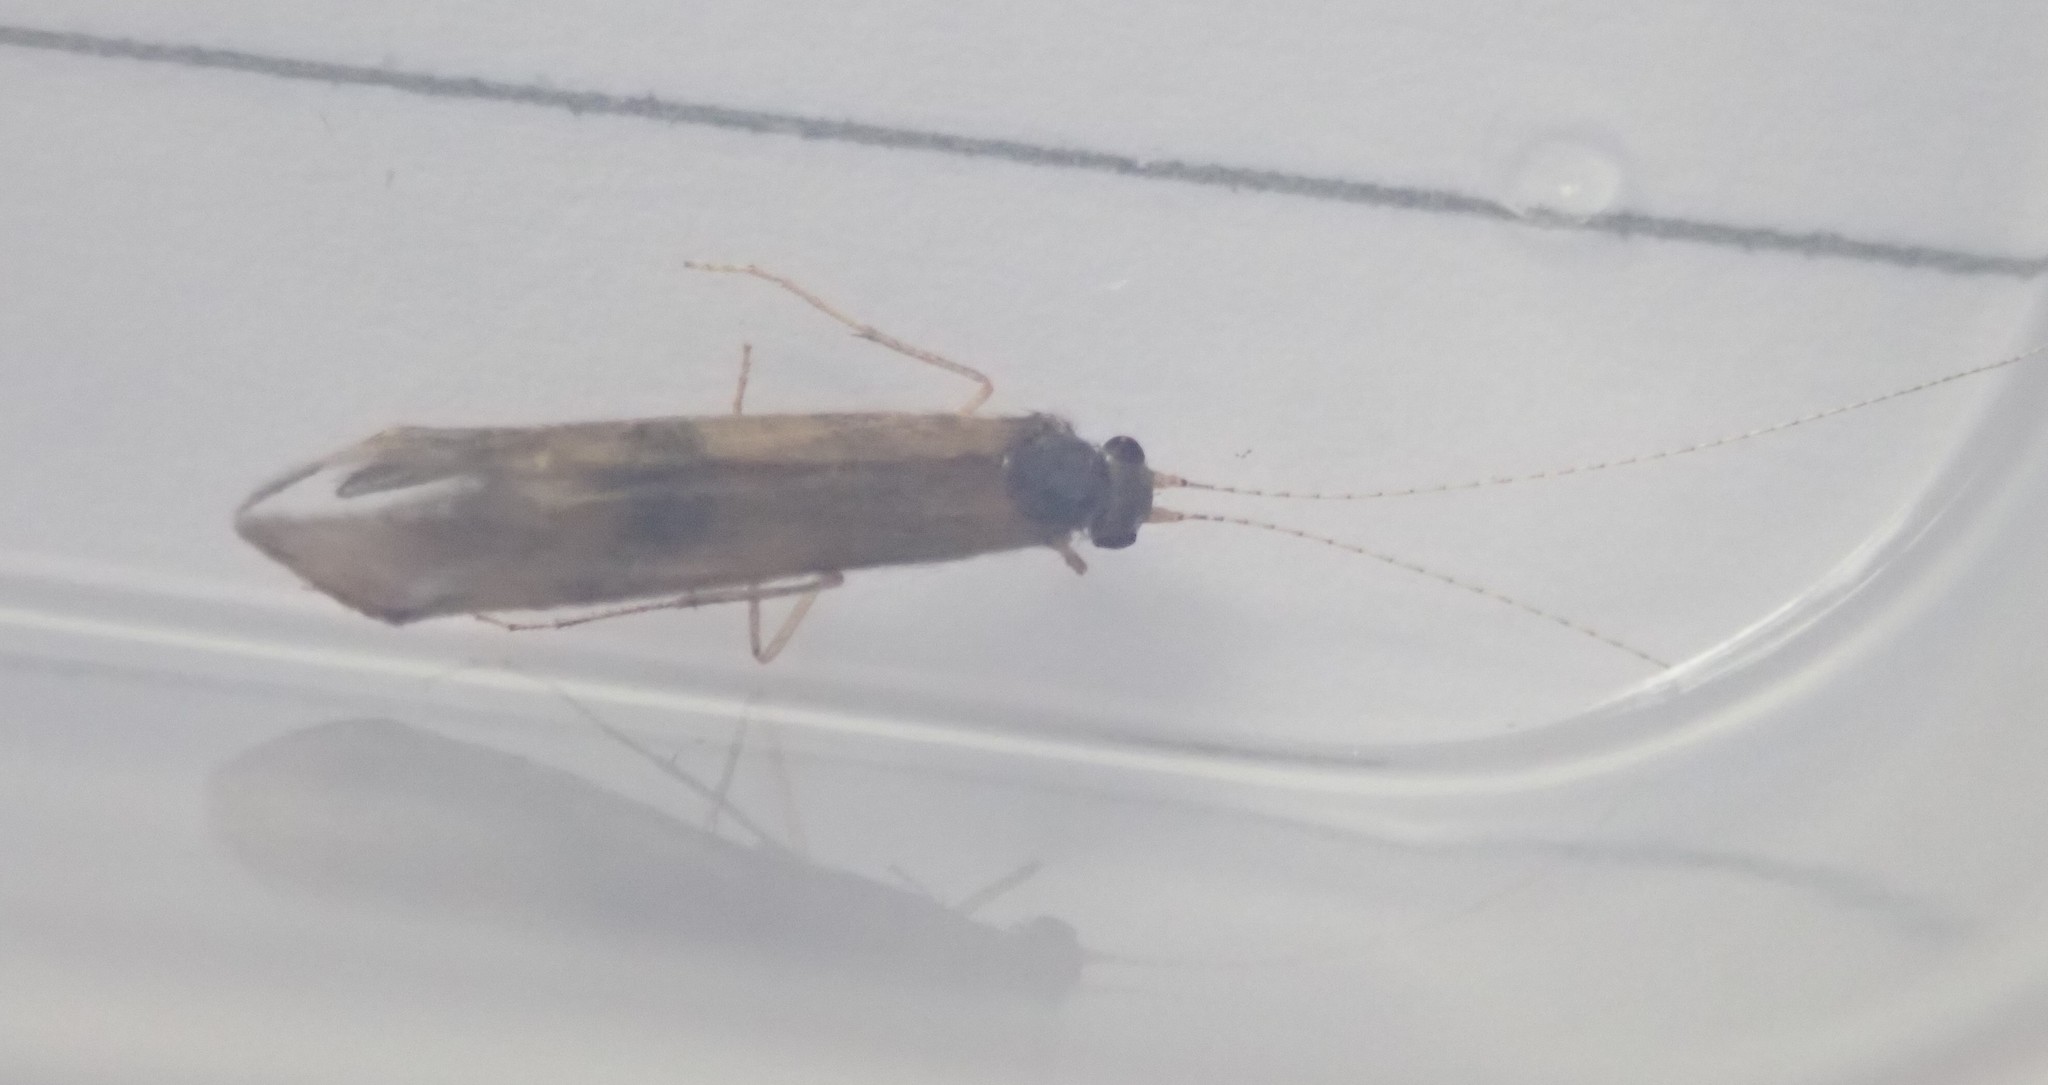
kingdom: Animalia
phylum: Arthropoda
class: Insecta
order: Trichoptera
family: Leptoceridae
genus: Mystacides
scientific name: Mystacides longicornis
